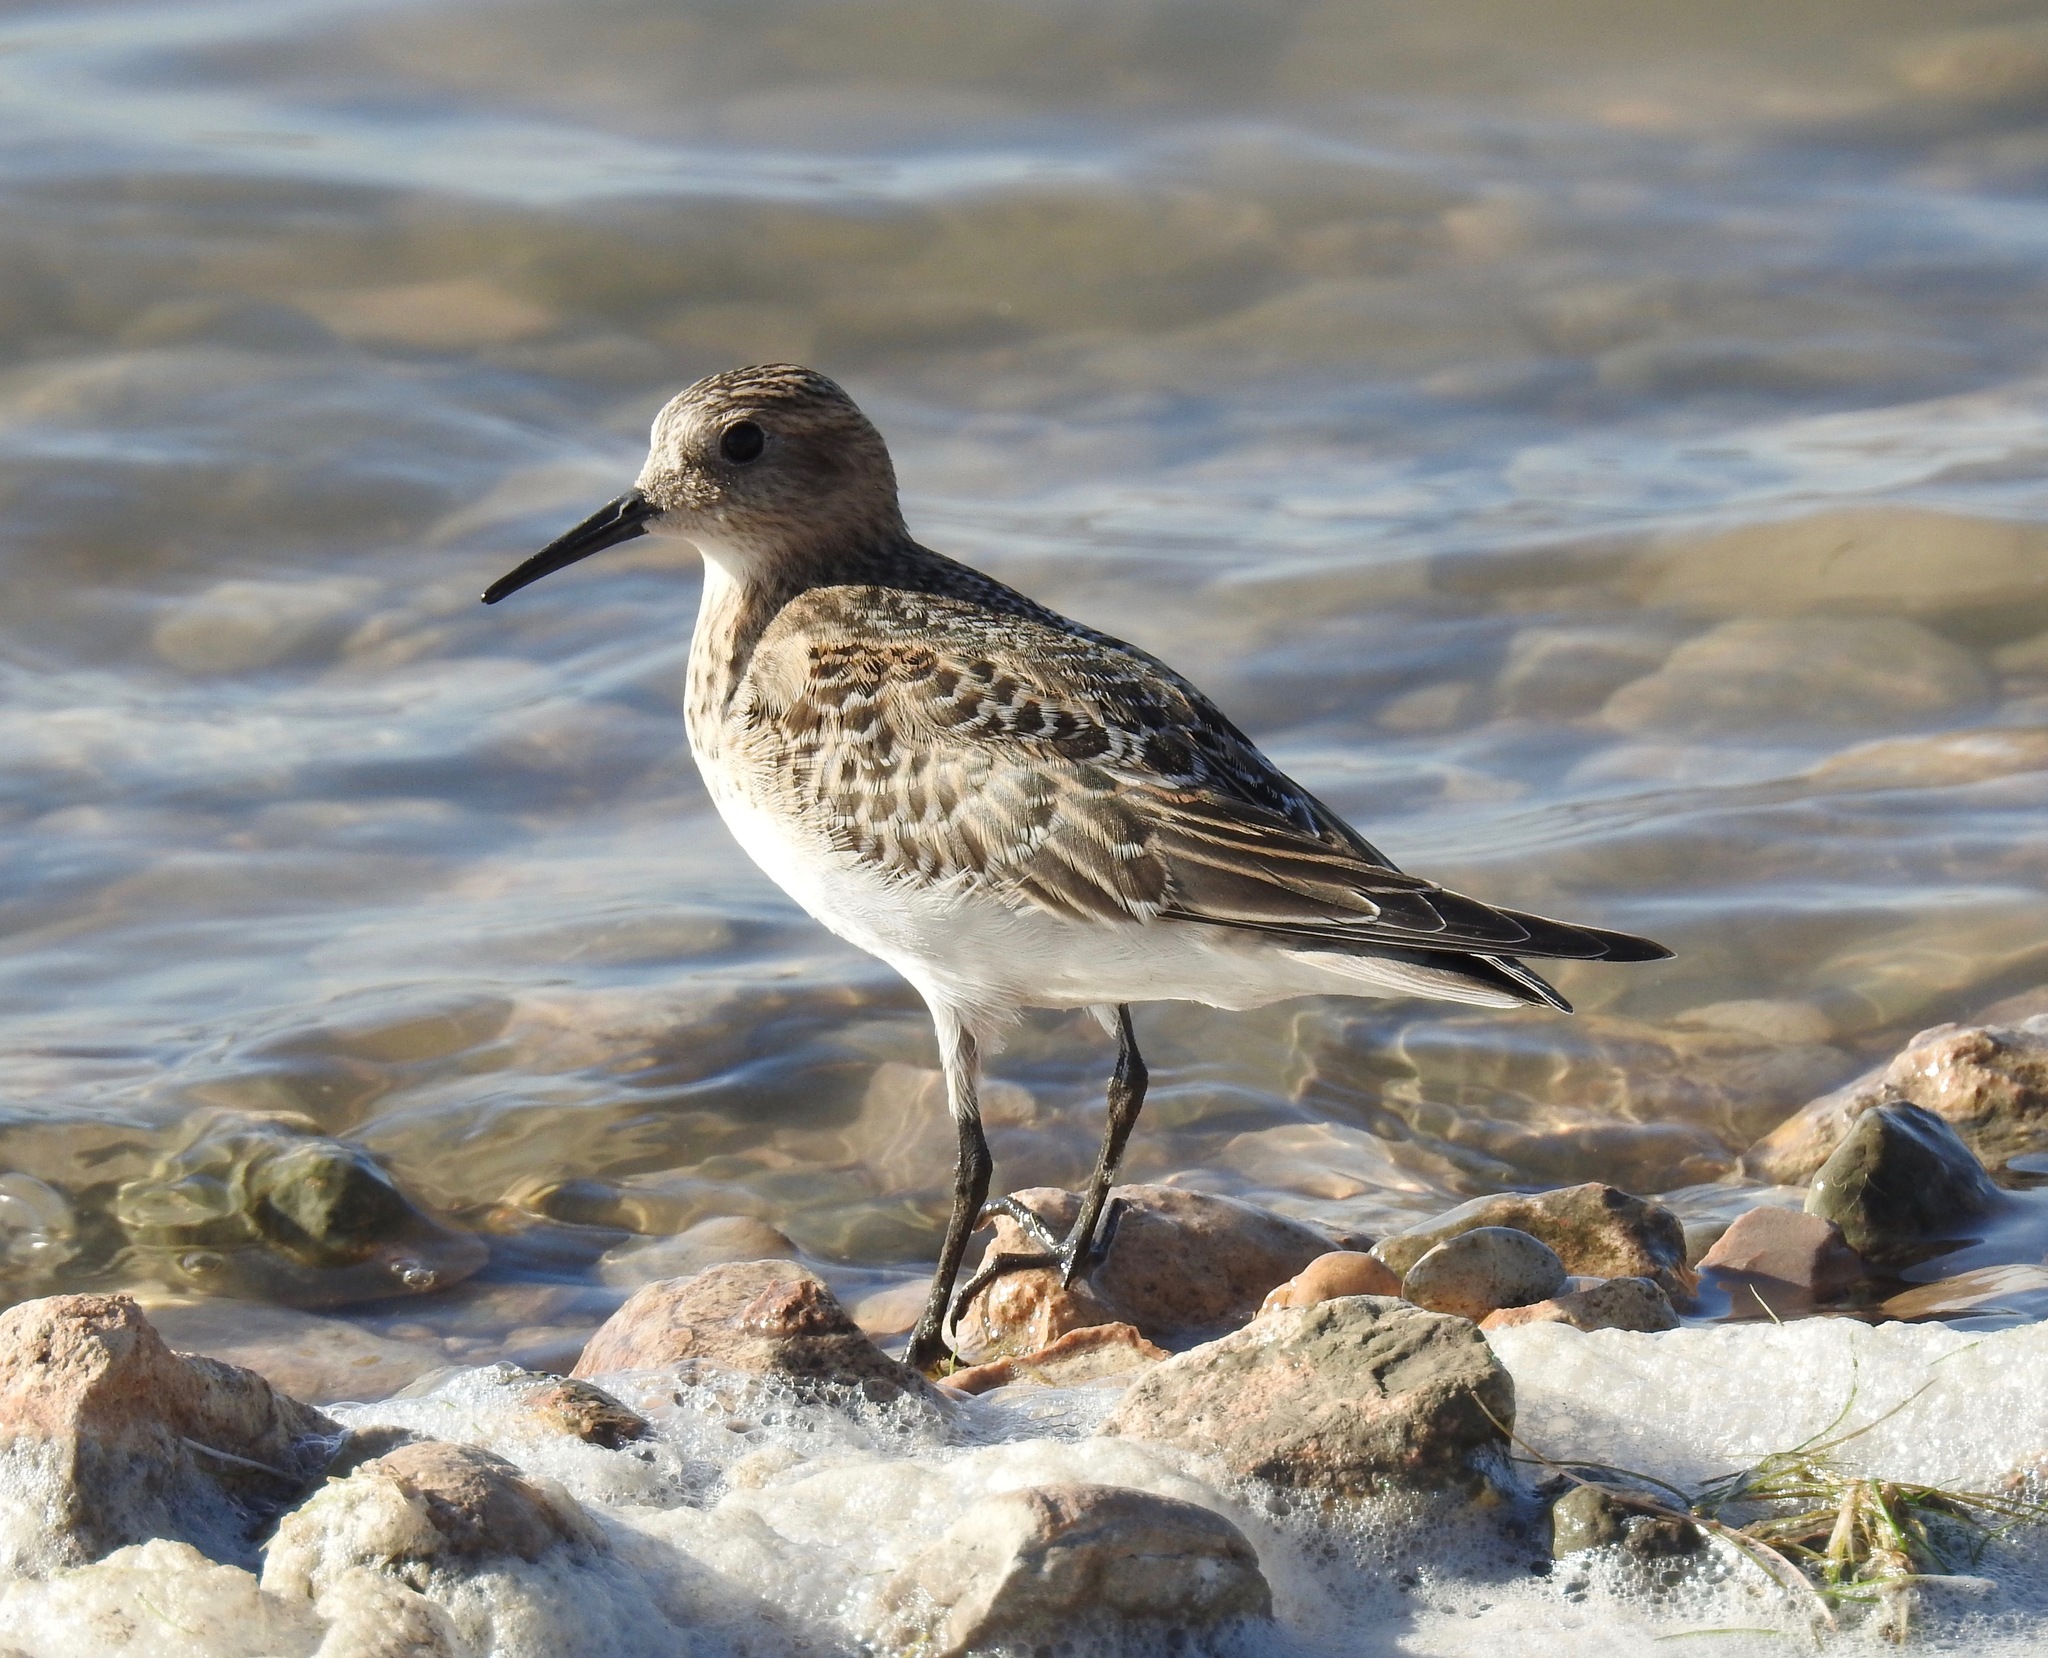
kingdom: Animalia
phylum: Chordata
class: Aves
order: Charadriiformes
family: Scolopacidae
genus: Calidris
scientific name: Calidris bairdii
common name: Baird's sandpiper
